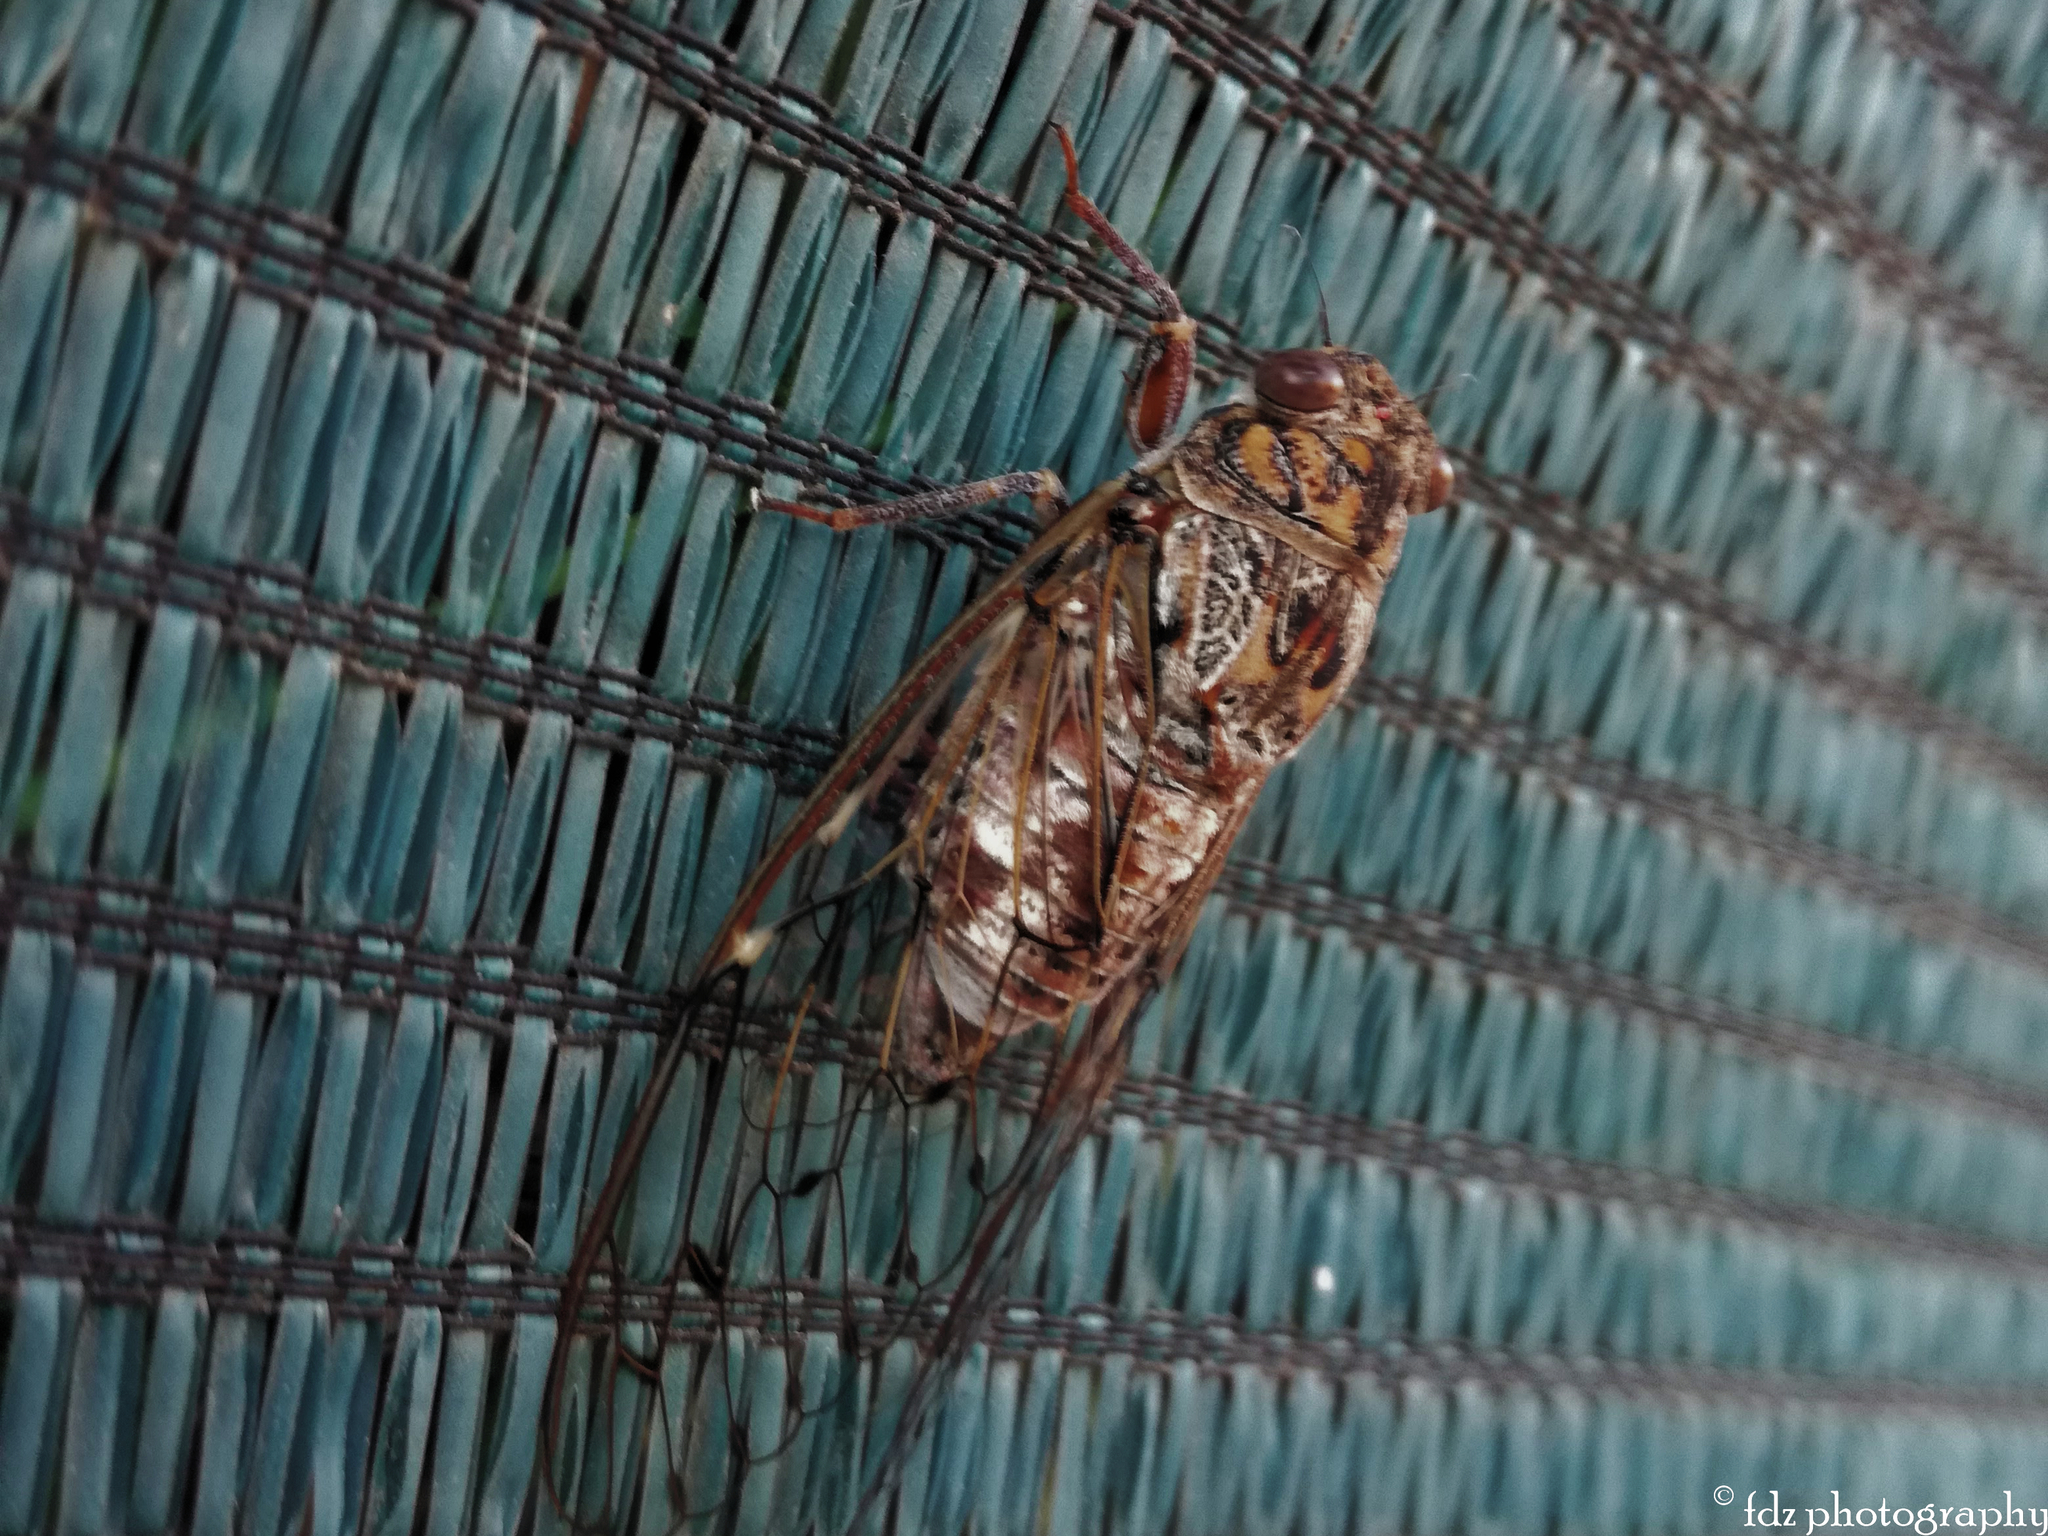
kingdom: Animalia
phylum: Arthropoda
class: Insecta
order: Hemiptera
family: Cicadidae
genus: Cicada
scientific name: Cicada barbara
